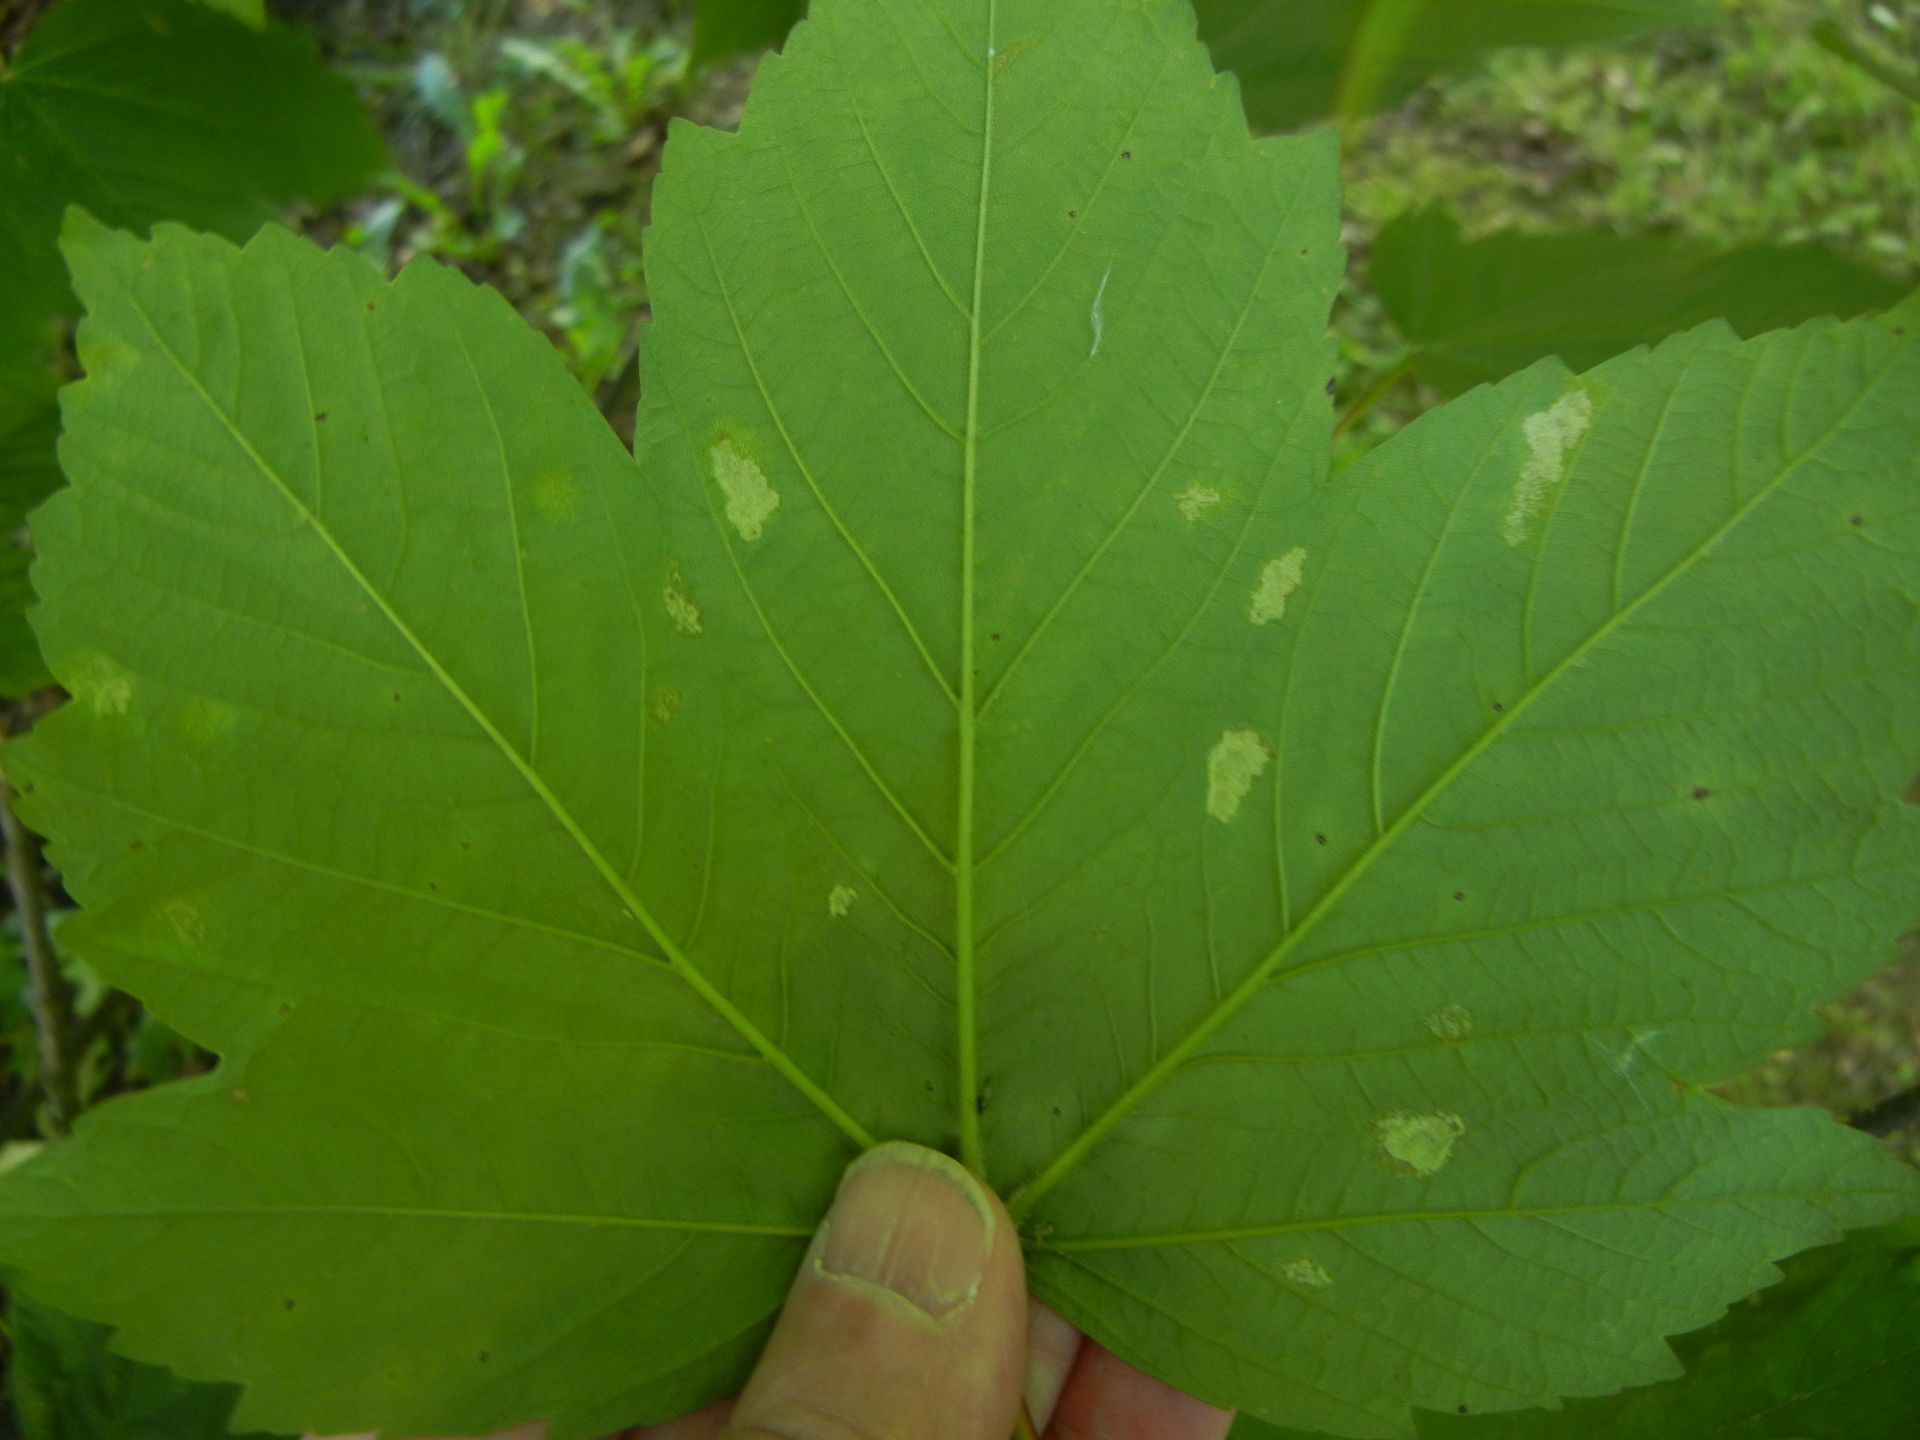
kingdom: Plantae
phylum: Tracheophyta
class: Magnoliopsida
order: Sapindales
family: Sapindaceae
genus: Acer
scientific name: Acer pseudoplatanus
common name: Sycamore
